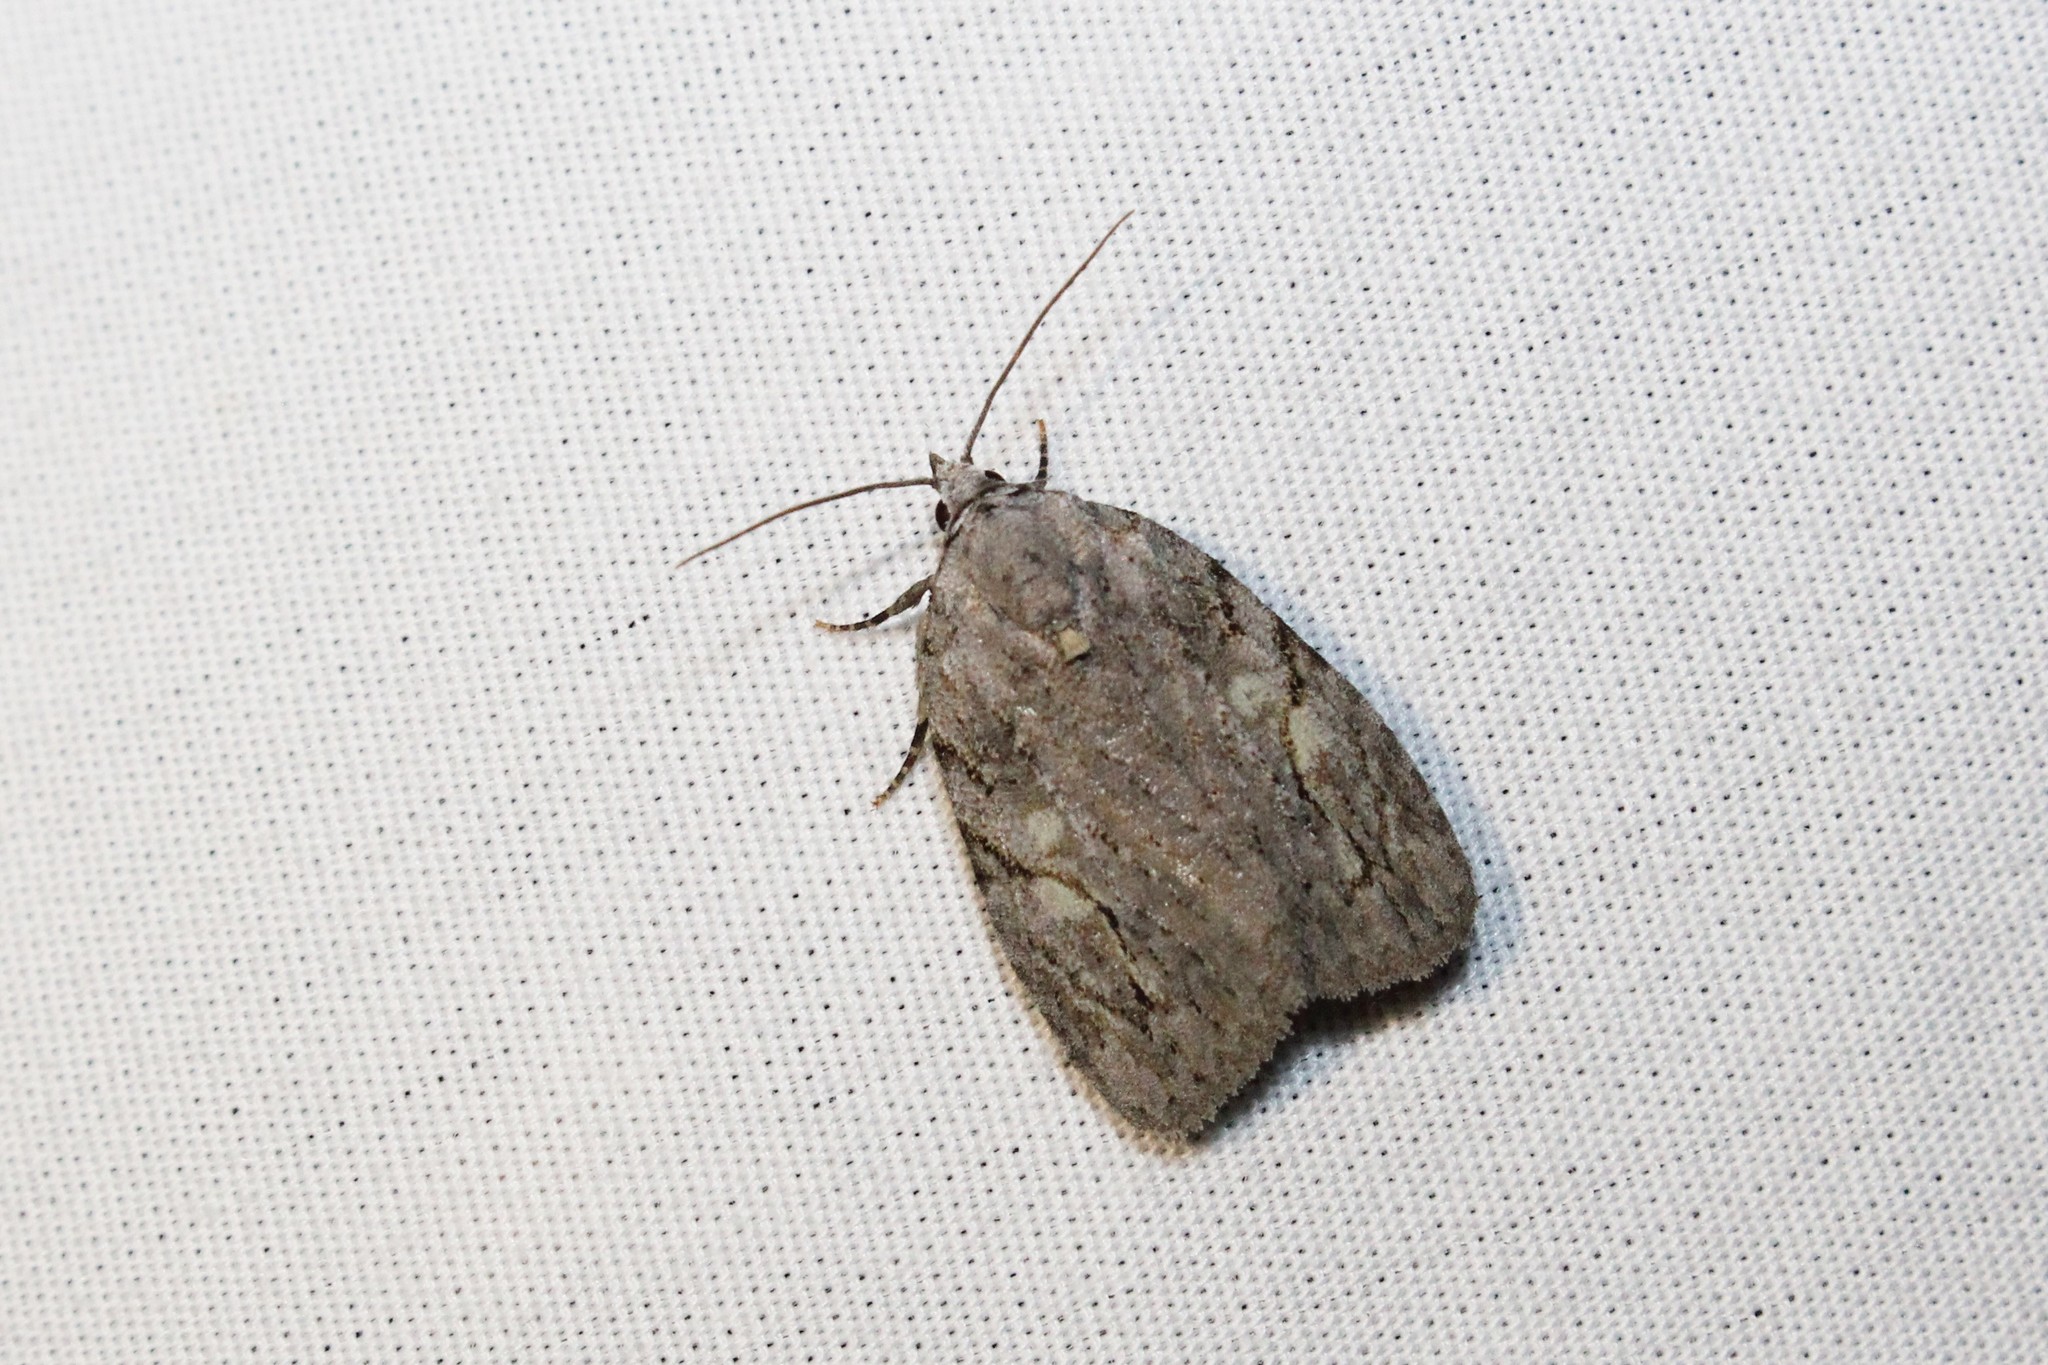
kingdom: Animalia
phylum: Arthropoda
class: Insecta
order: Lepidoptera
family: Noctuidae
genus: Balsa
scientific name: Balsa labecula
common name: White-blotched balsa moth
